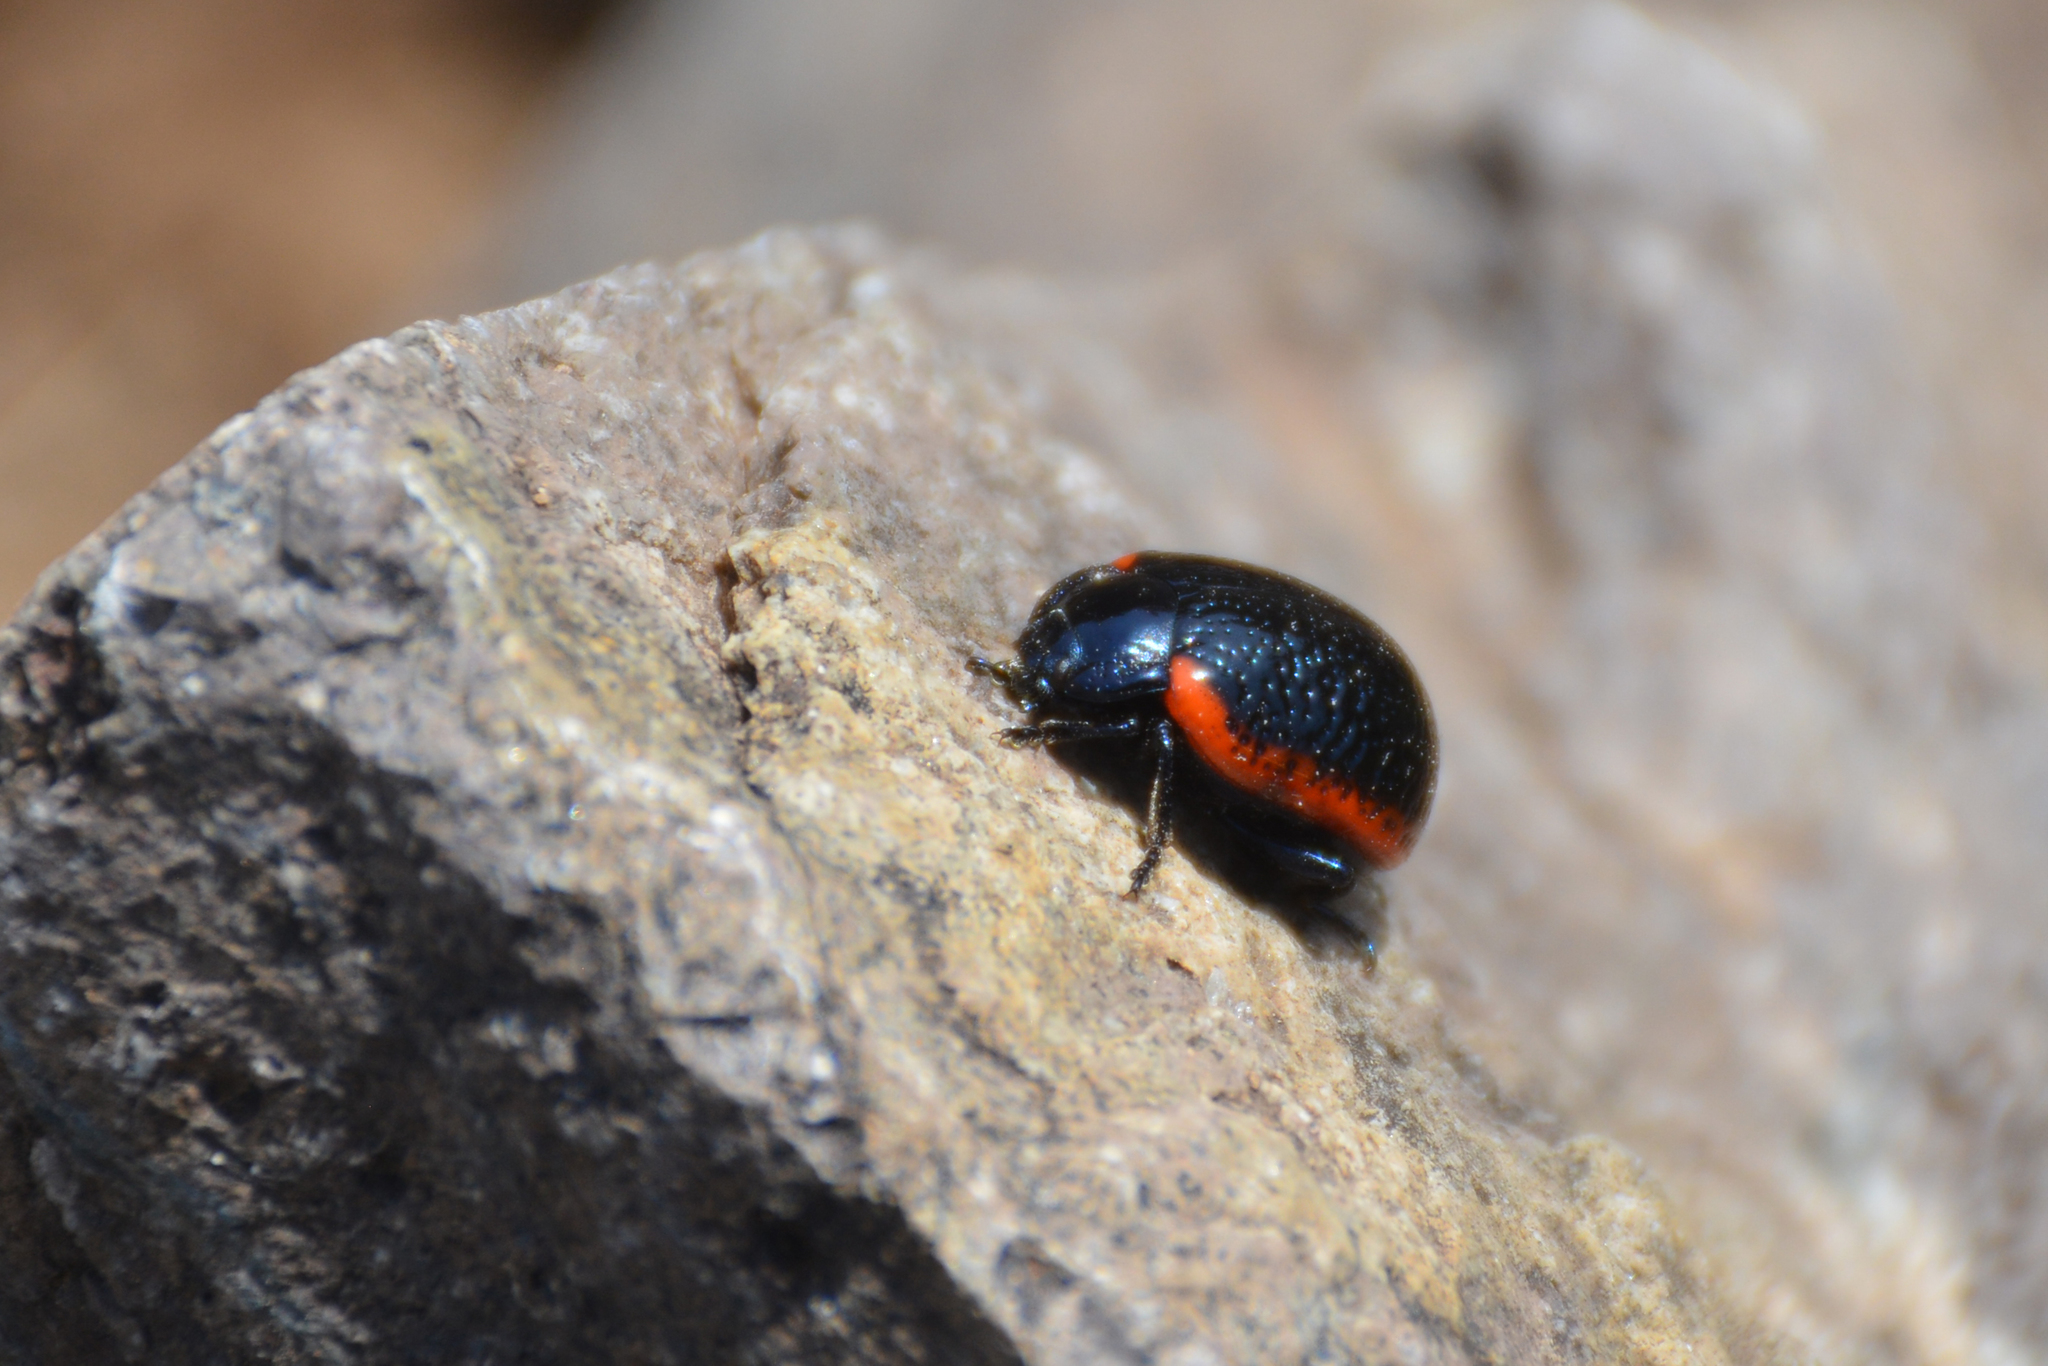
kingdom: Animalia
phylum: Arthropoda
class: Insecta
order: Coleoptera
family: Chrysomelidae
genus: Chrysolina
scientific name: Chrysolina gypsophilae
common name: Leaf beetle
